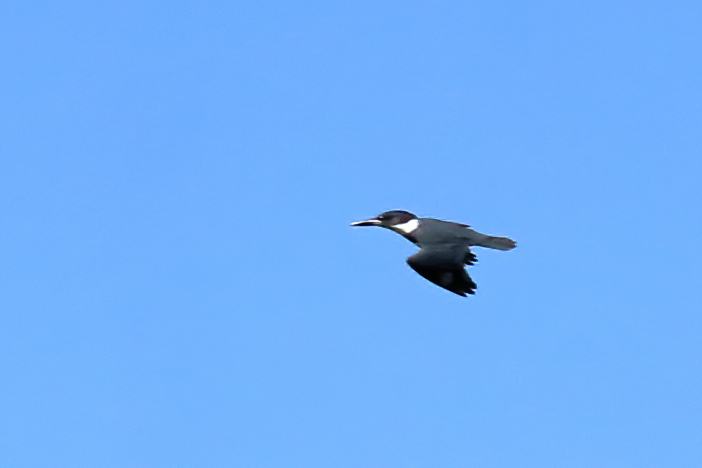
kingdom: Animalia
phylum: Chordata
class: Aves
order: Coraciiformes
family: Alcedinidae
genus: Megaceryle
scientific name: Megaceryle alcyon
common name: Belted kingfisher
